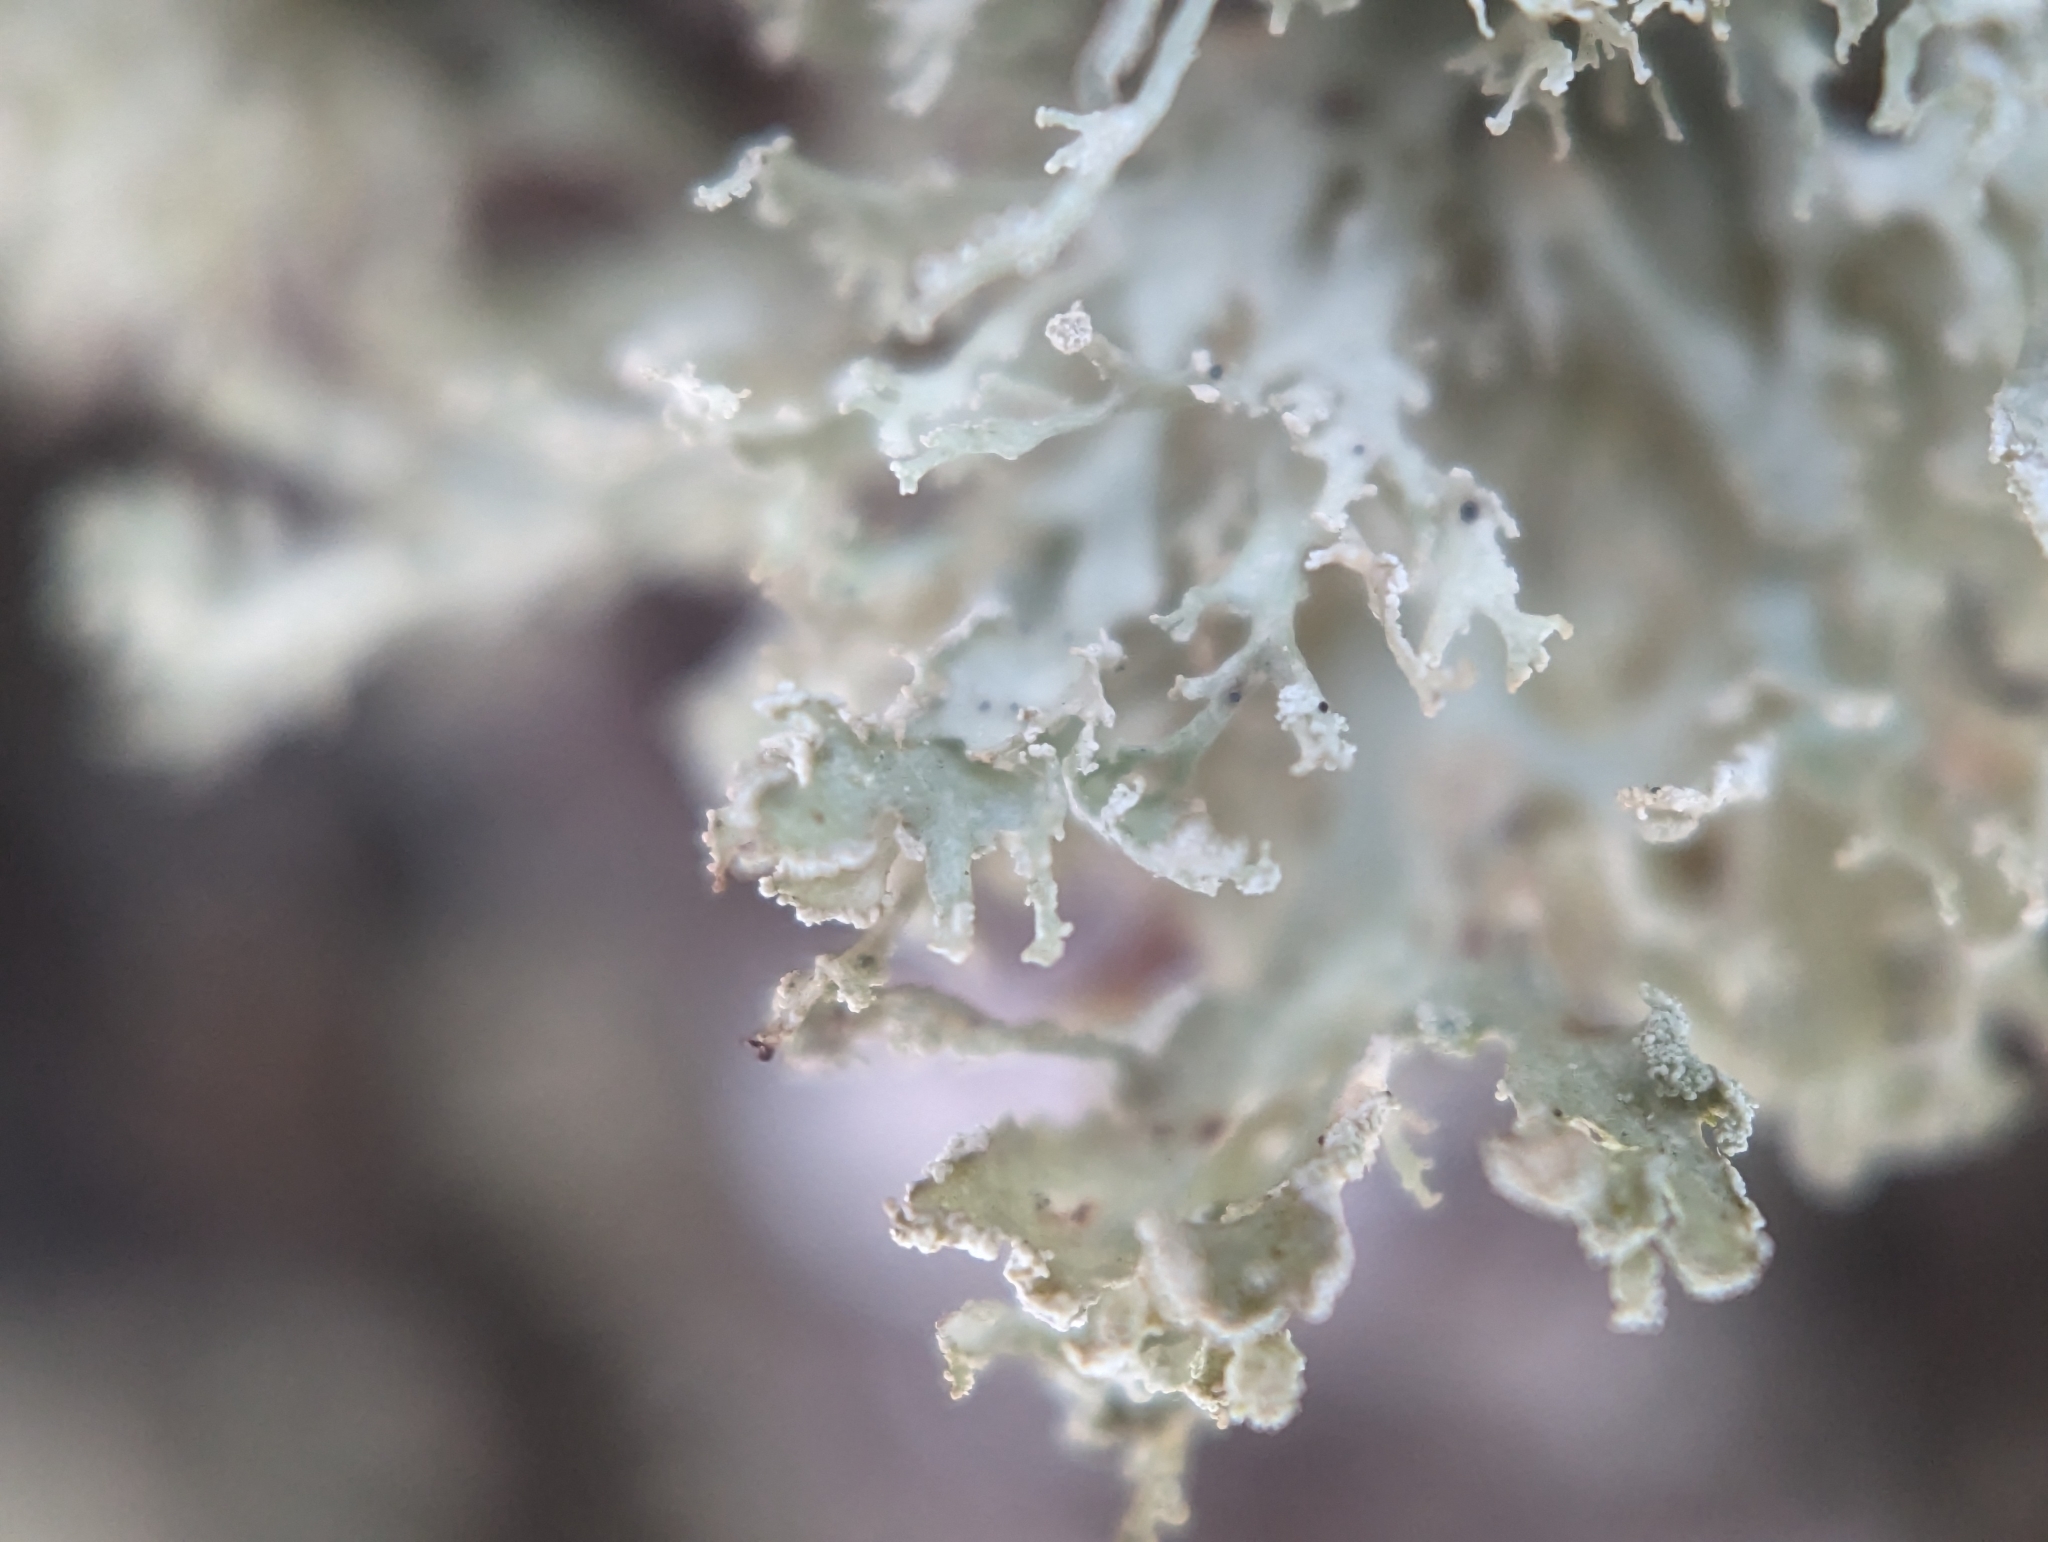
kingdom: Fungi
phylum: Ascomycota
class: Lecanoromycetes
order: Lecanorales
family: Parmeliaceae
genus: Evernia
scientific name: Evernia prunastri
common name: Oak moss
